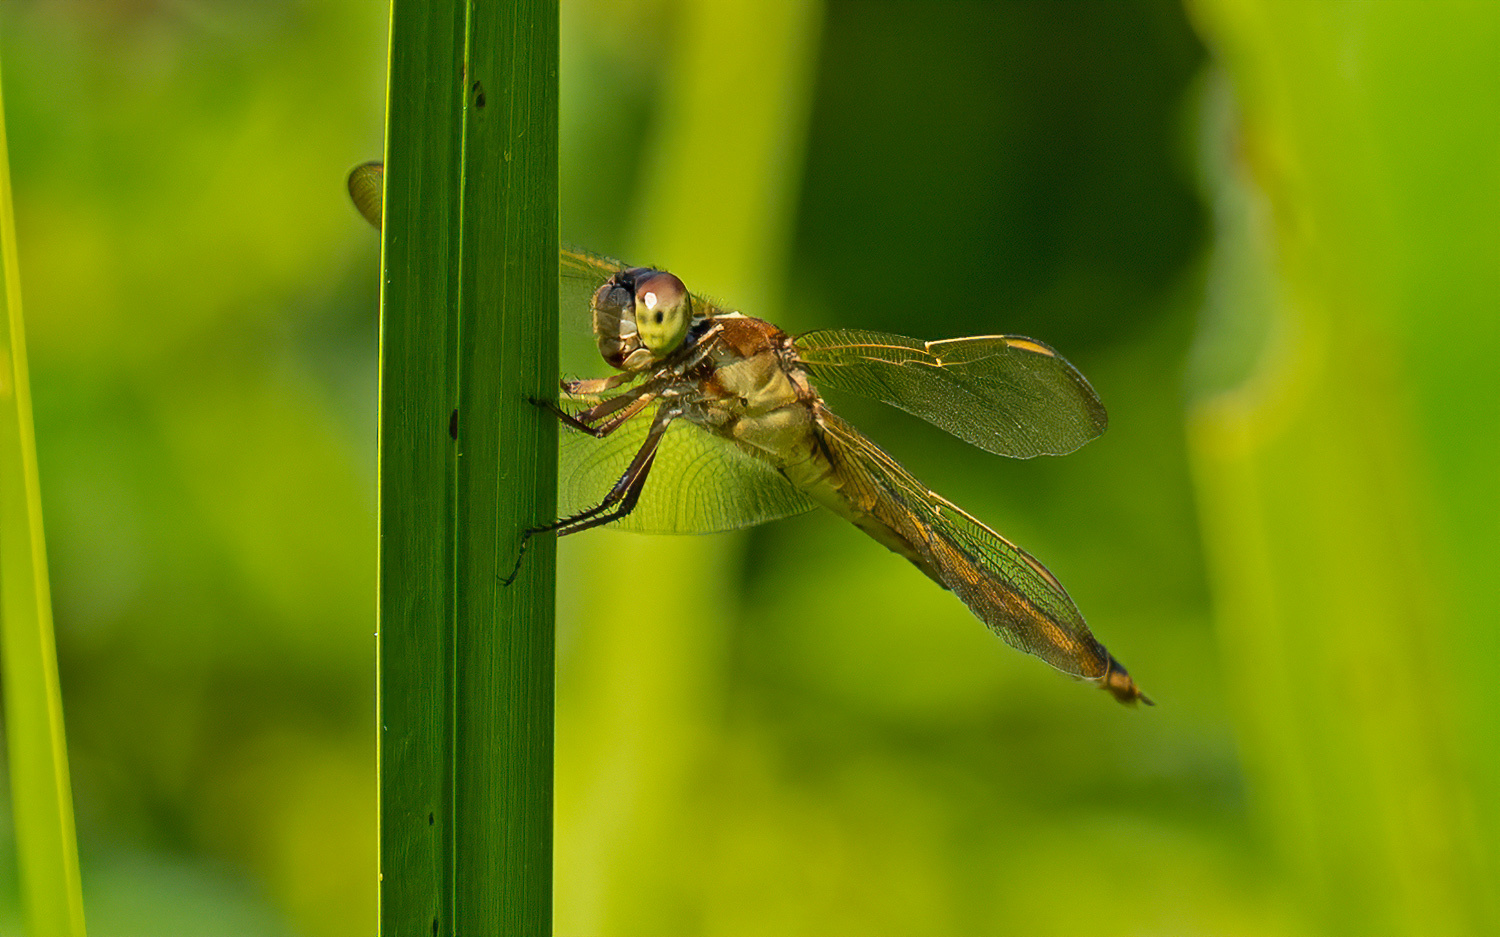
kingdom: Animalia
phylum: Arthropoda
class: Insecta
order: Odonata
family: Libellulidae
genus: Libellula
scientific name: Libellula needhami
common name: Needham's skimmer
